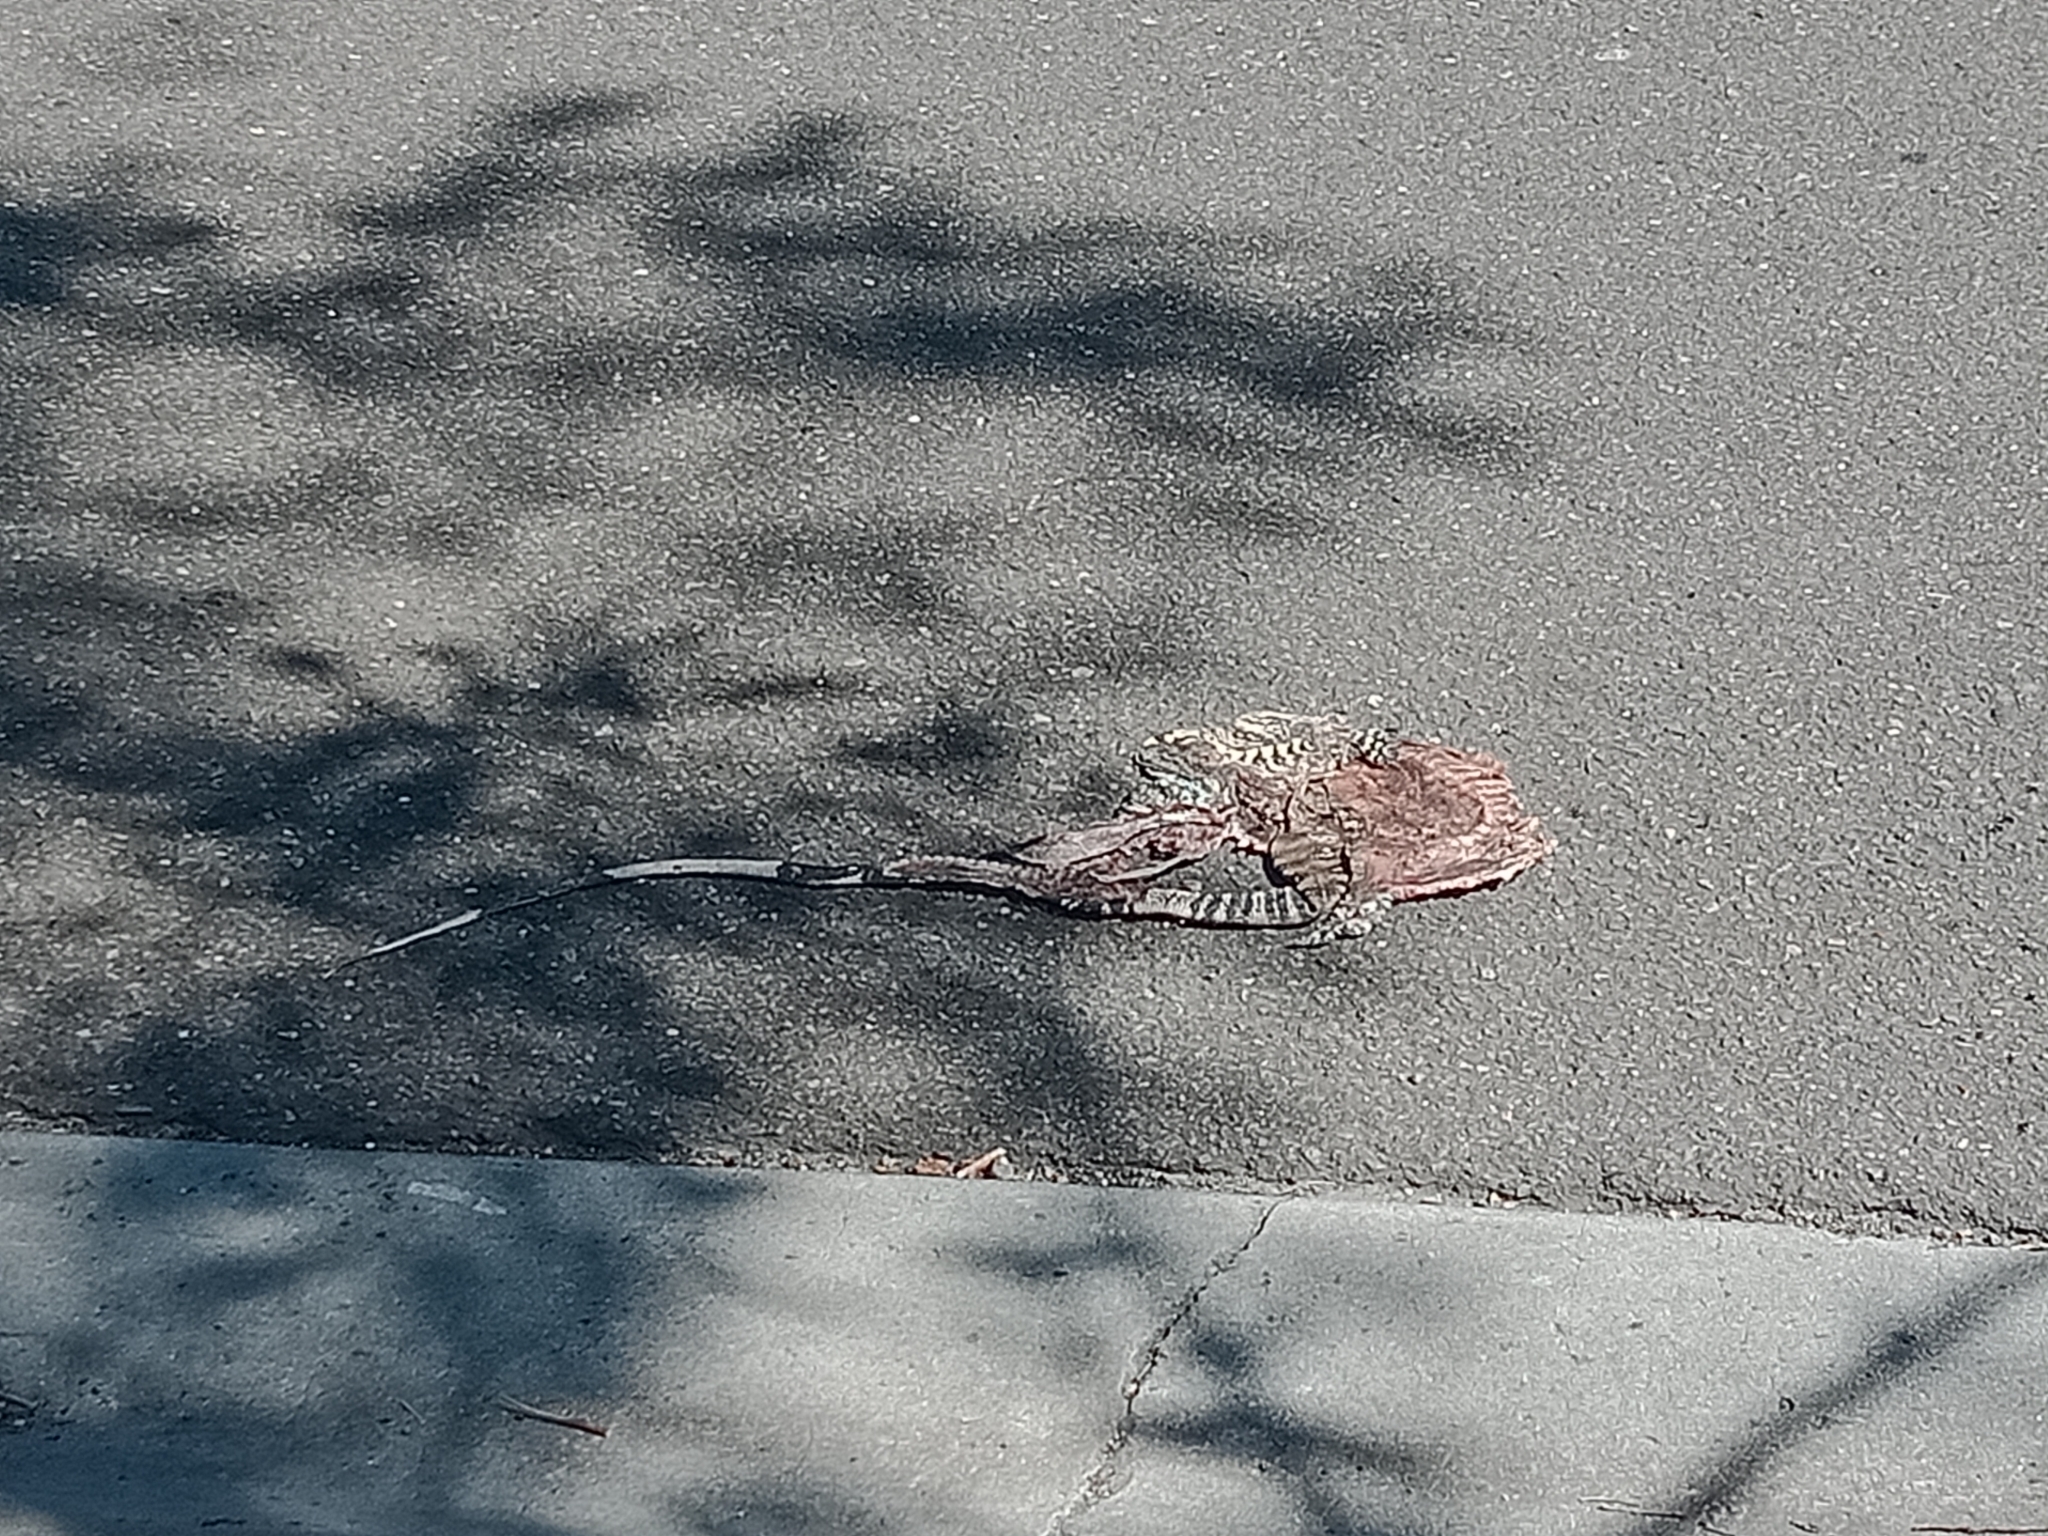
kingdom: Animalia
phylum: Chordata
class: Squamata
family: Varanidae
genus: Varanus
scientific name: Varanus varius
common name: Lace monitor
